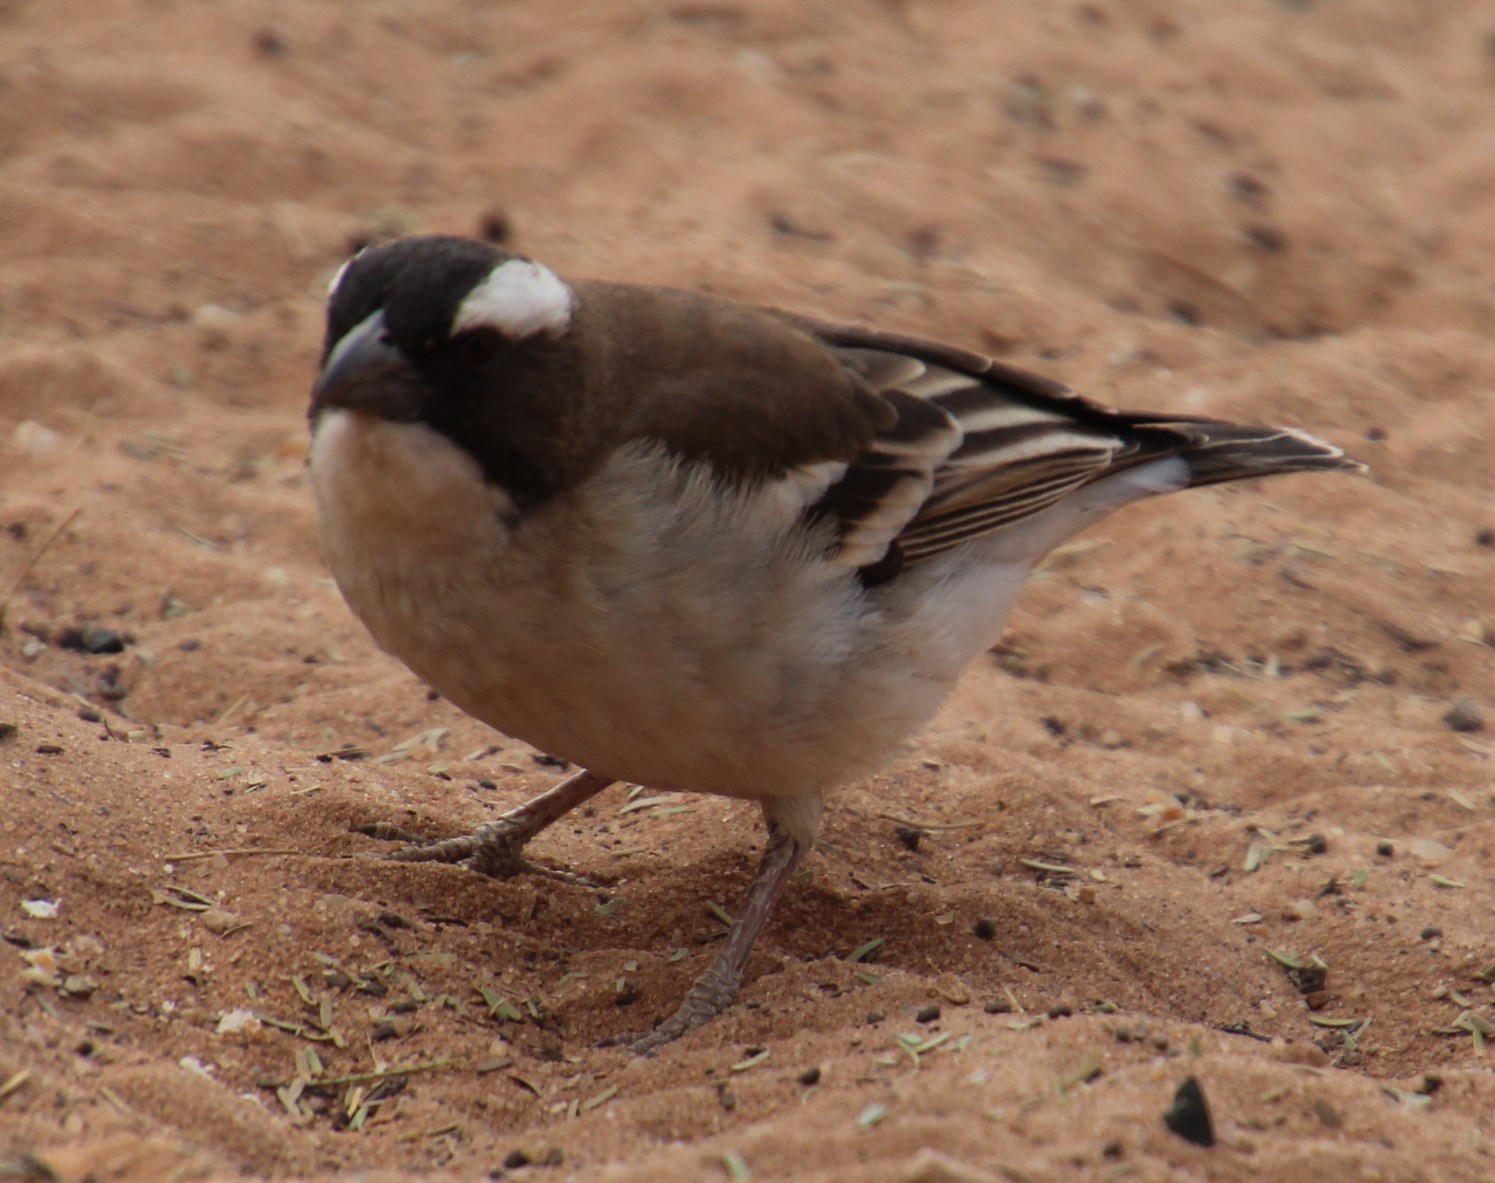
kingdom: Animalia
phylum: Chordata
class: Aves
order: Passeriformes
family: Passeridae
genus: Plocepasser
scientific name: Plocepasser mahali
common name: White-browed sparrow-weaver
